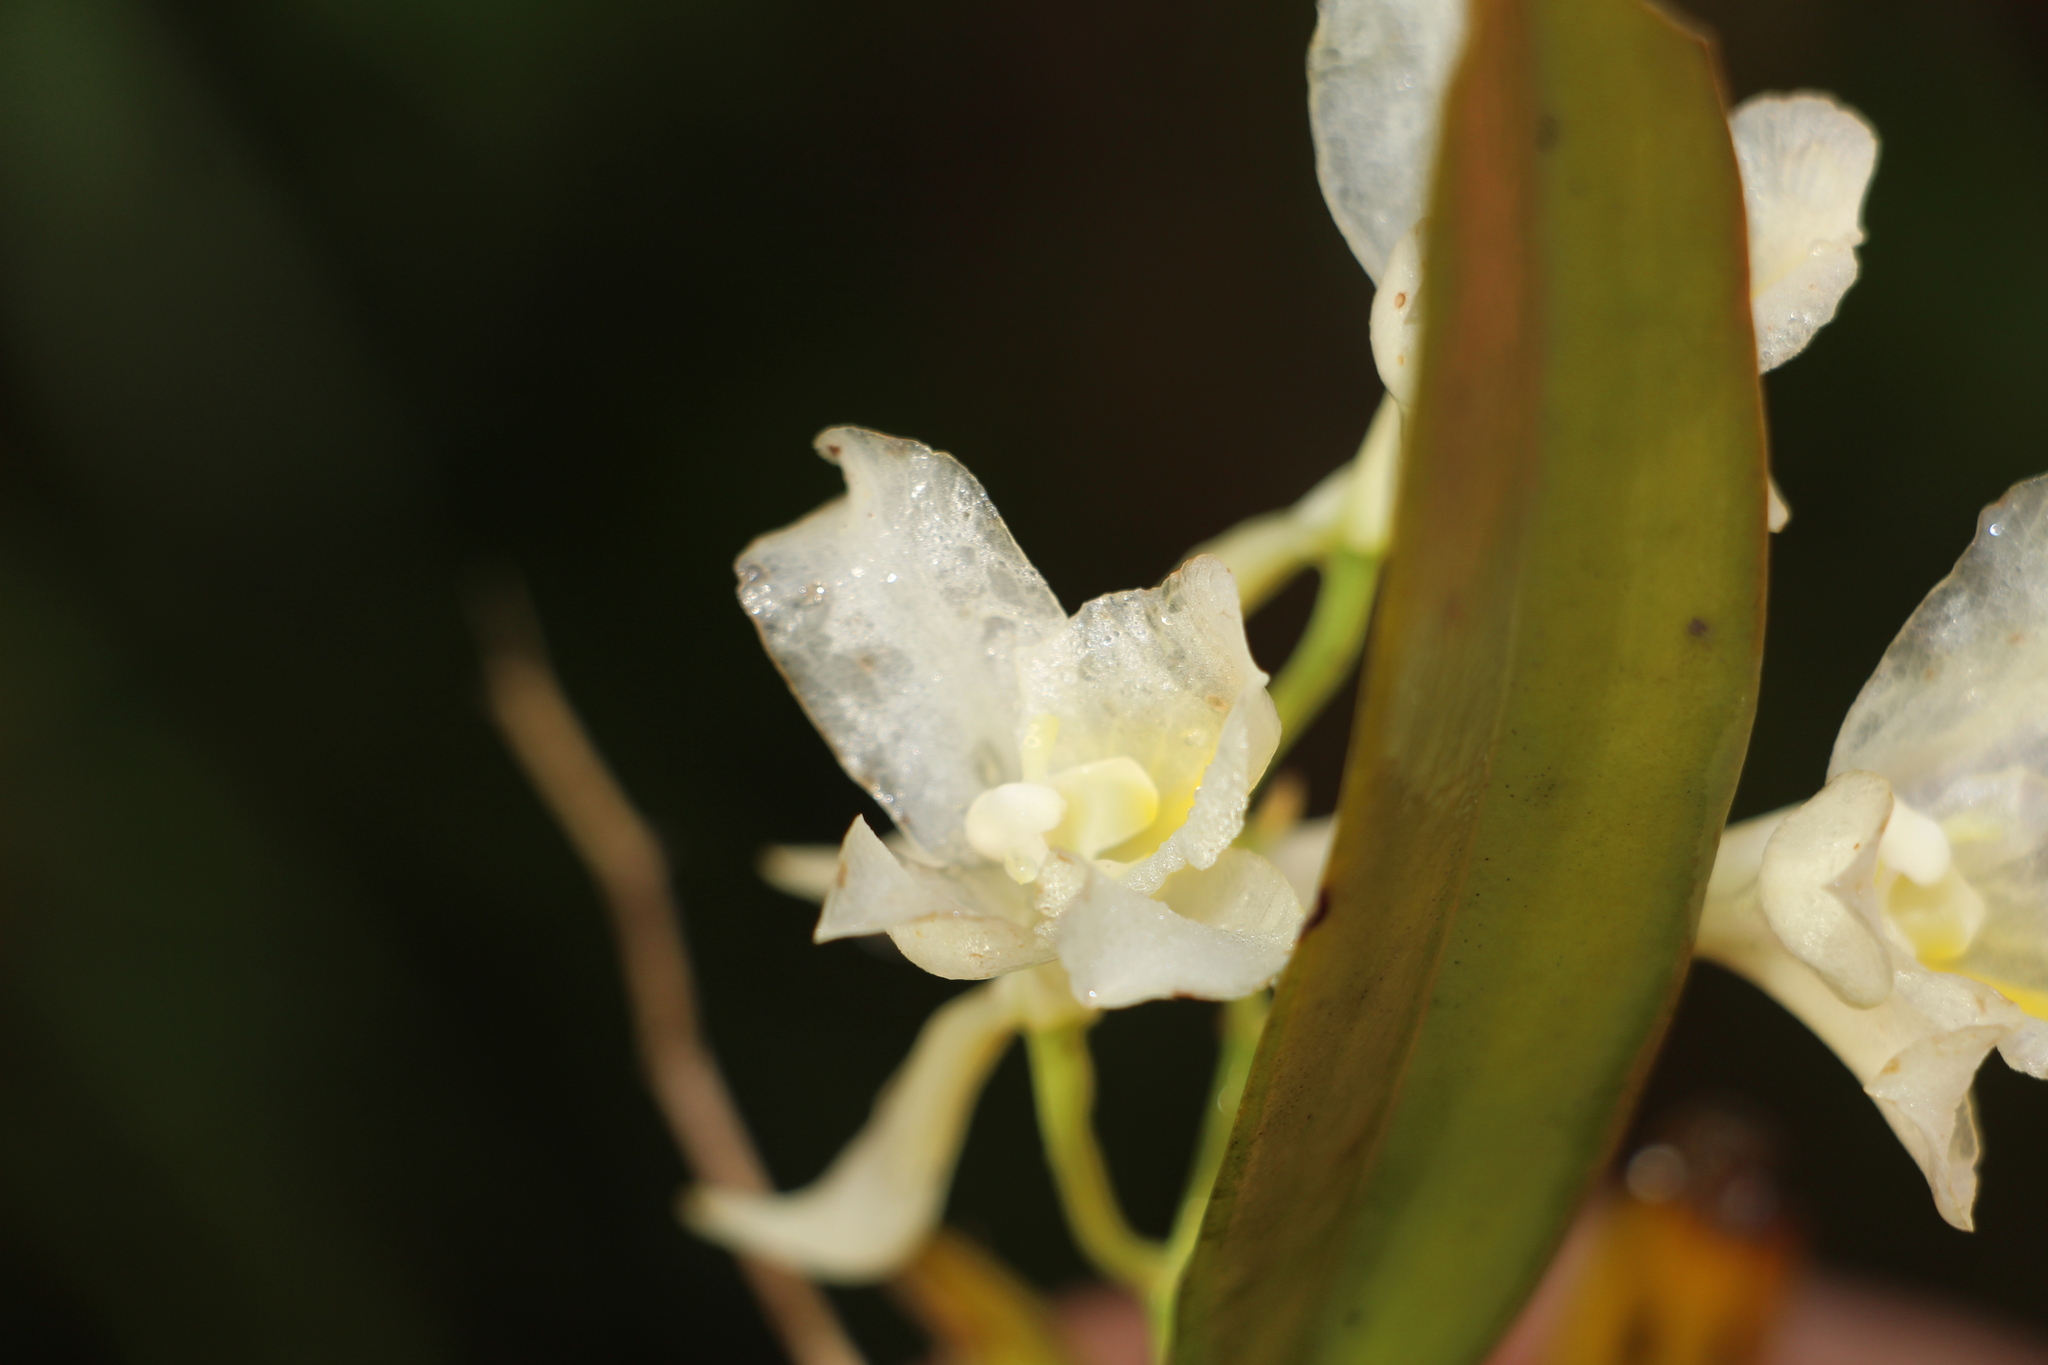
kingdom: Plantae
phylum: Tracheophyta
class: Liliopsida
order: Asparagales
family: Orchidaceae
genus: Rodriguezia
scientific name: Rodriguezia granadensis
